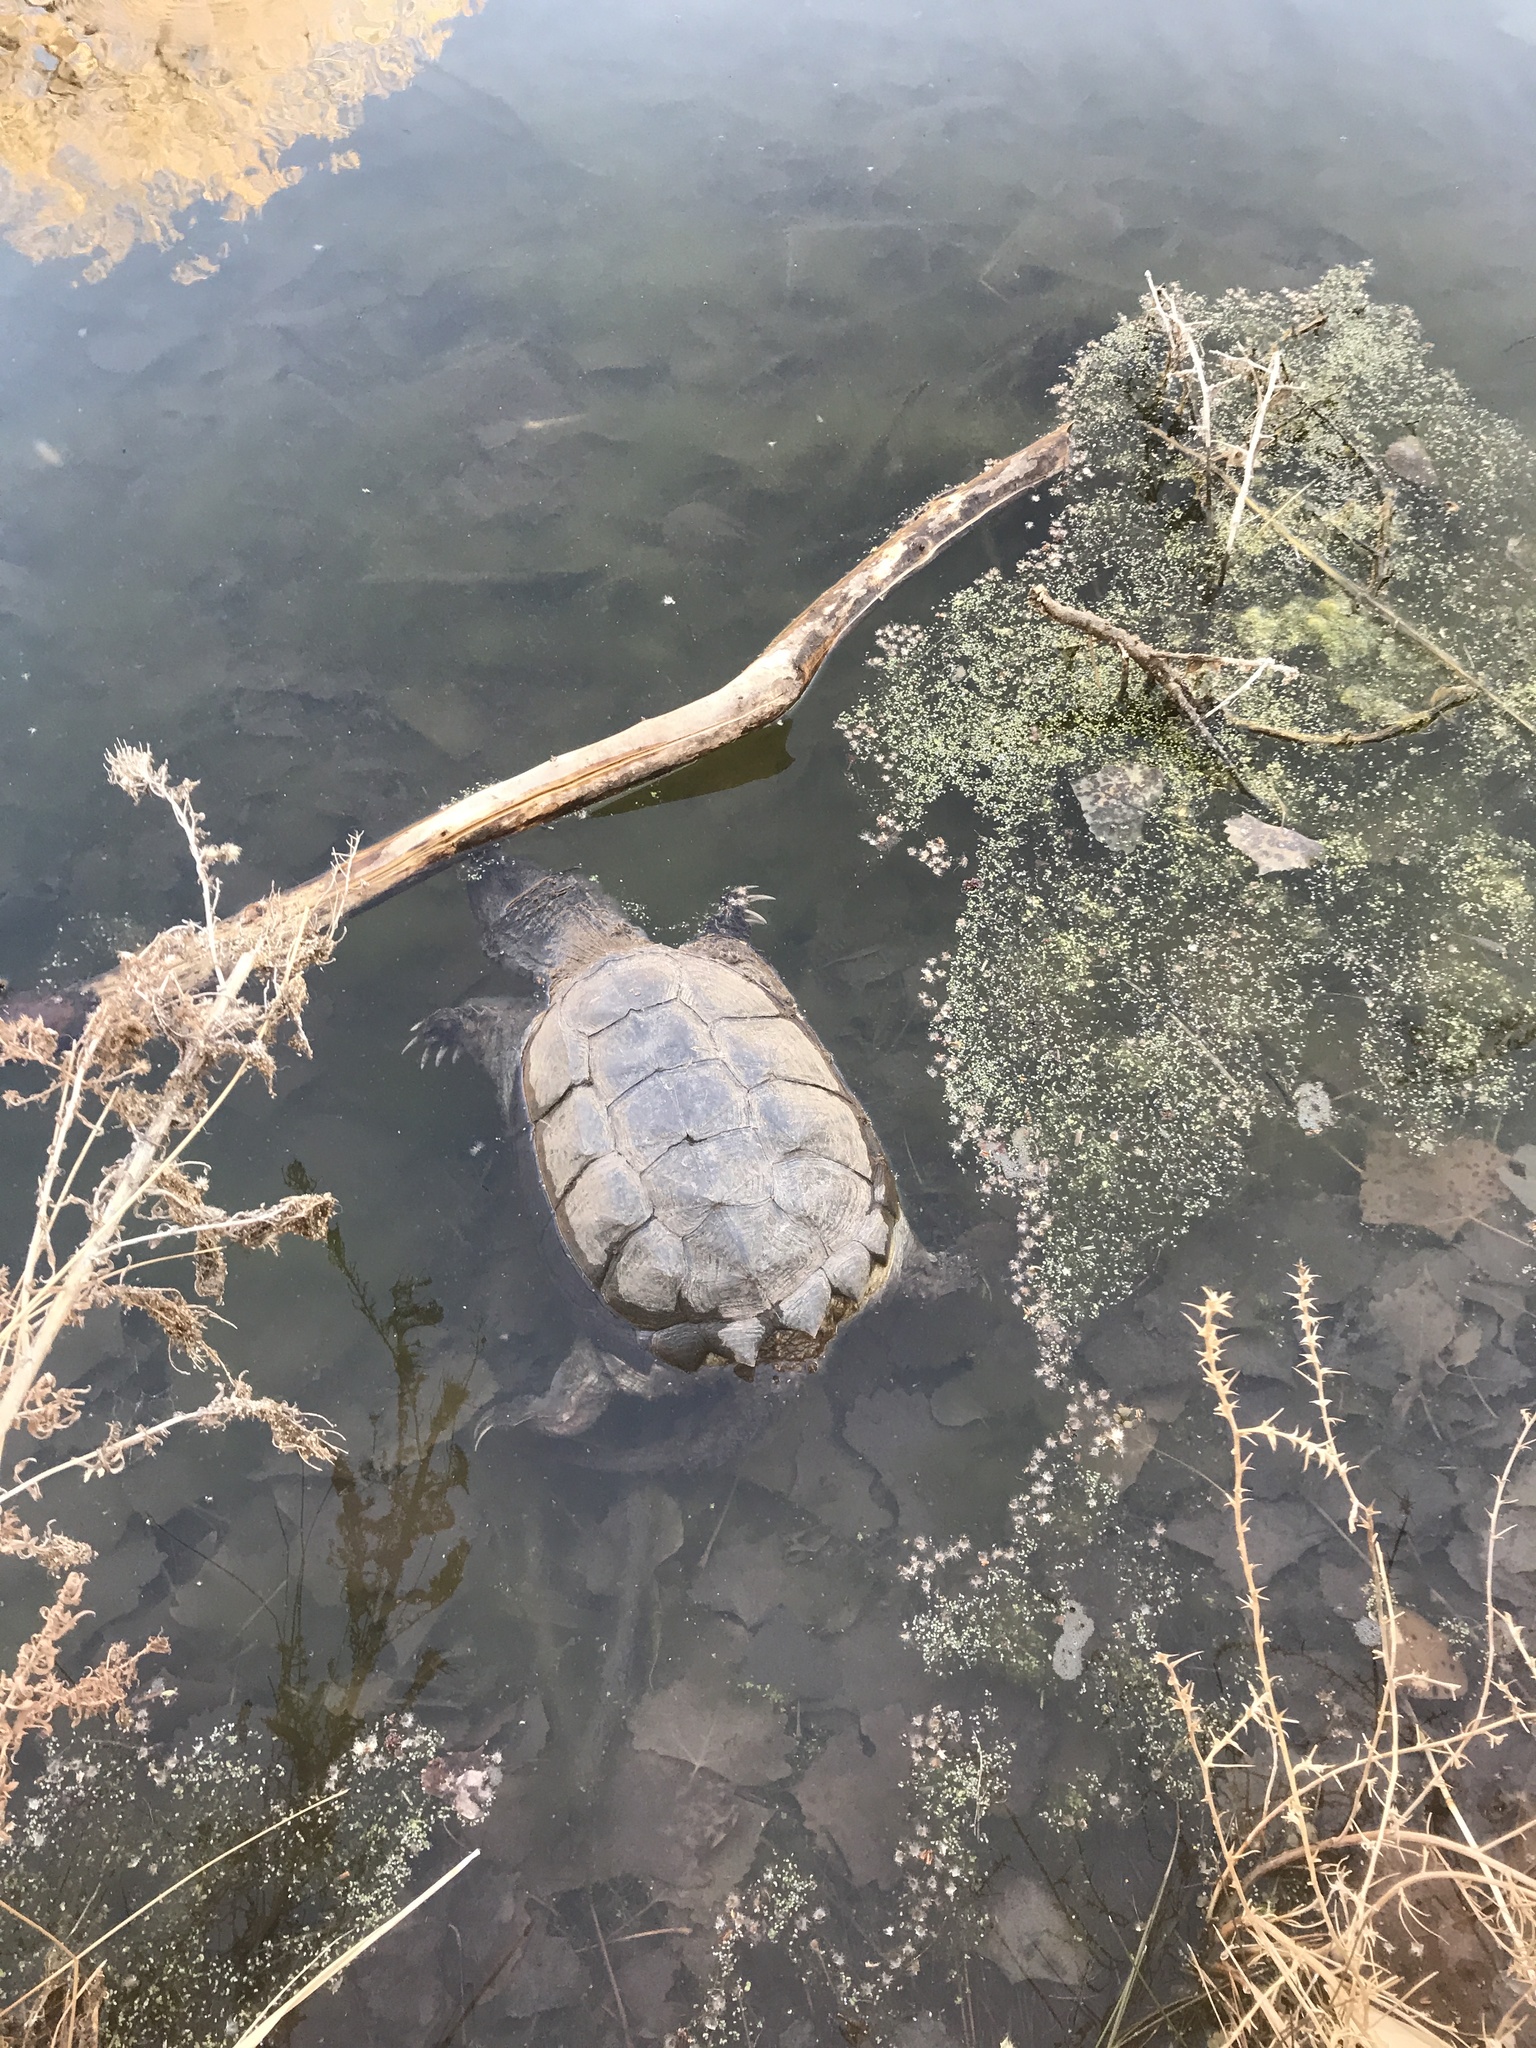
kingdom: Animalia
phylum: Chordata
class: Testudines
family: Chelydridae
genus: Chelydra
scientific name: Chelydra serpentina
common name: Common snapping turtle
